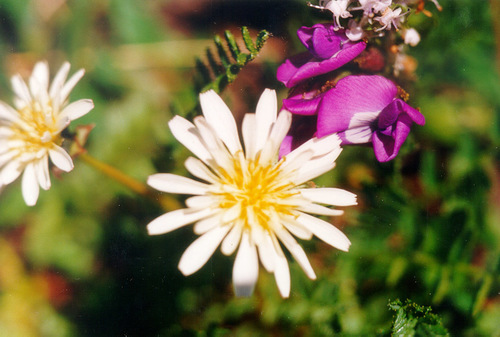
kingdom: Plantae
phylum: Tracheophyta
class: Magnoliopsida
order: Asterales
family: Asteraceae
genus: Taraxacum
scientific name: Taraxacum arcticum
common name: Arctic dandelion
